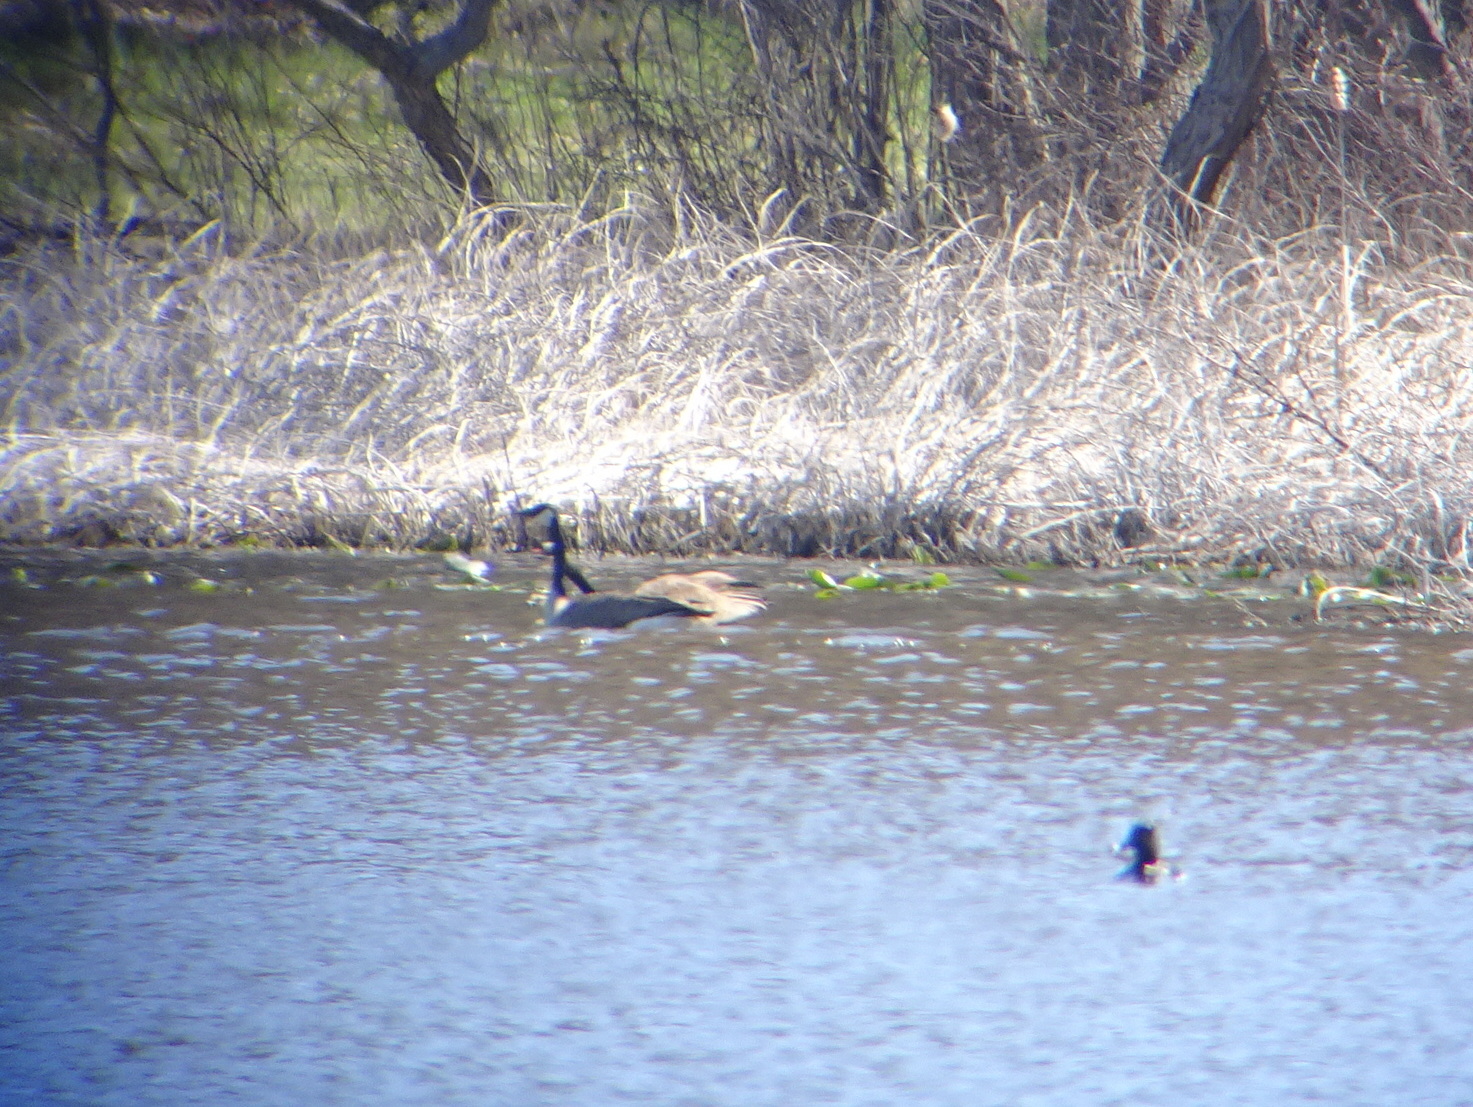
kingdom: Animalia
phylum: Chordata
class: Aves
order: Anseriformes
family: Anatidae
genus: Branta
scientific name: Branta canadensis
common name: Canada goose
